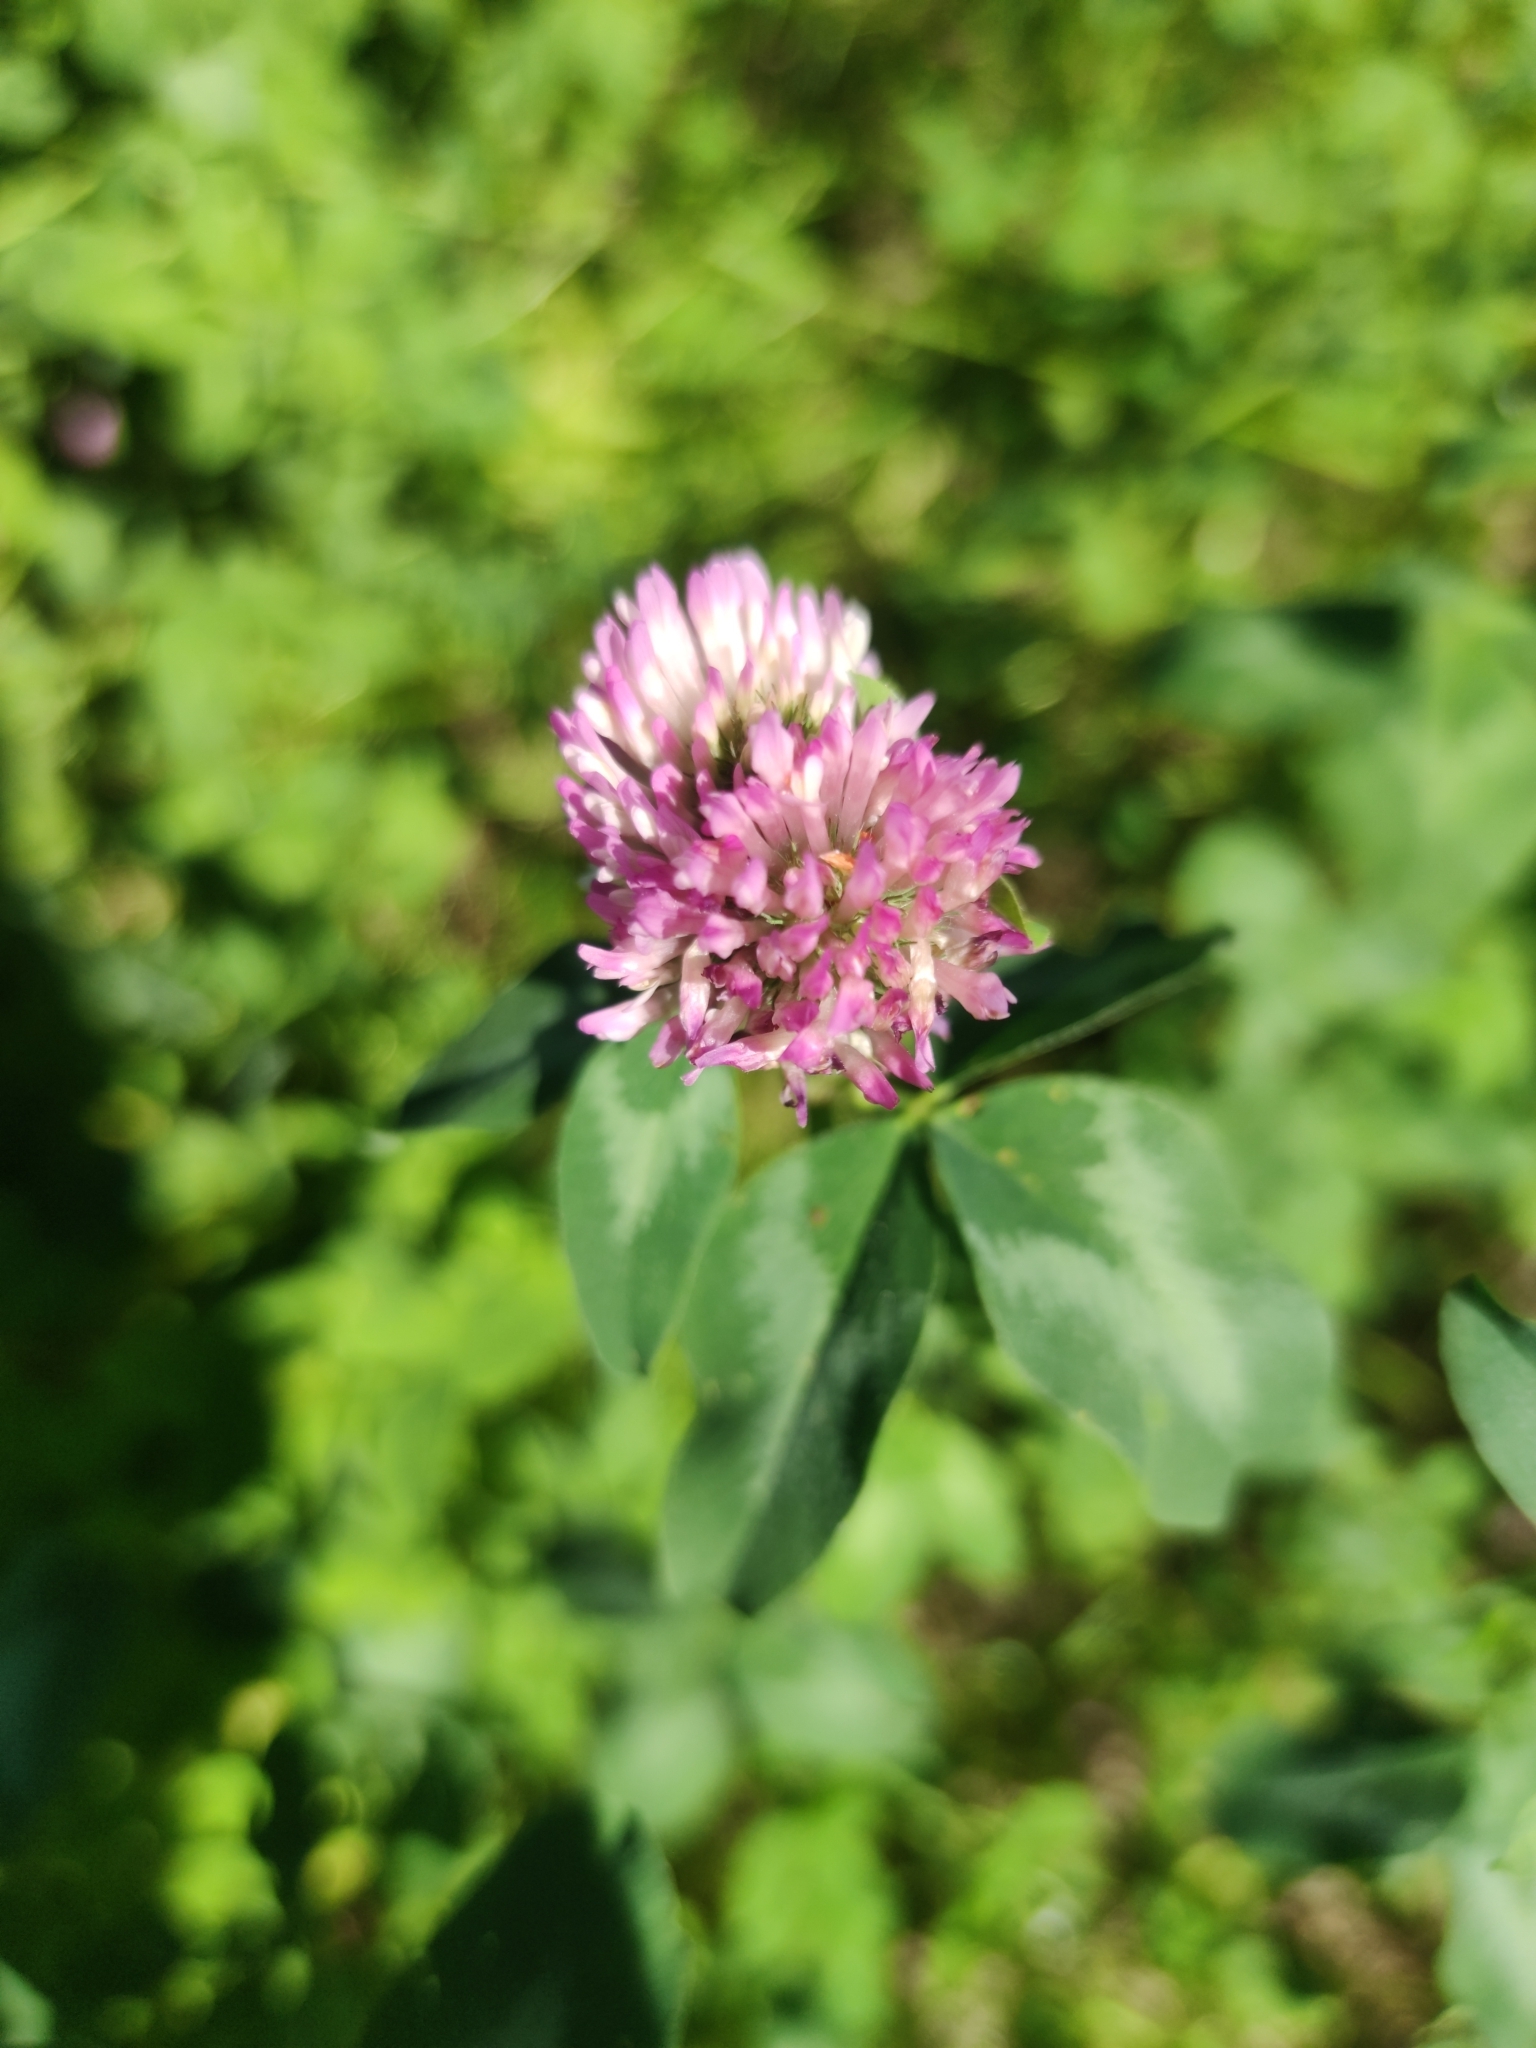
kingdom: Plantae
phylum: Tracheophyta
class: Magnoliopsida
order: Fabales
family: Fabaceae
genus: Trifolium
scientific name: Trifolium pratense
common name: Red clover
